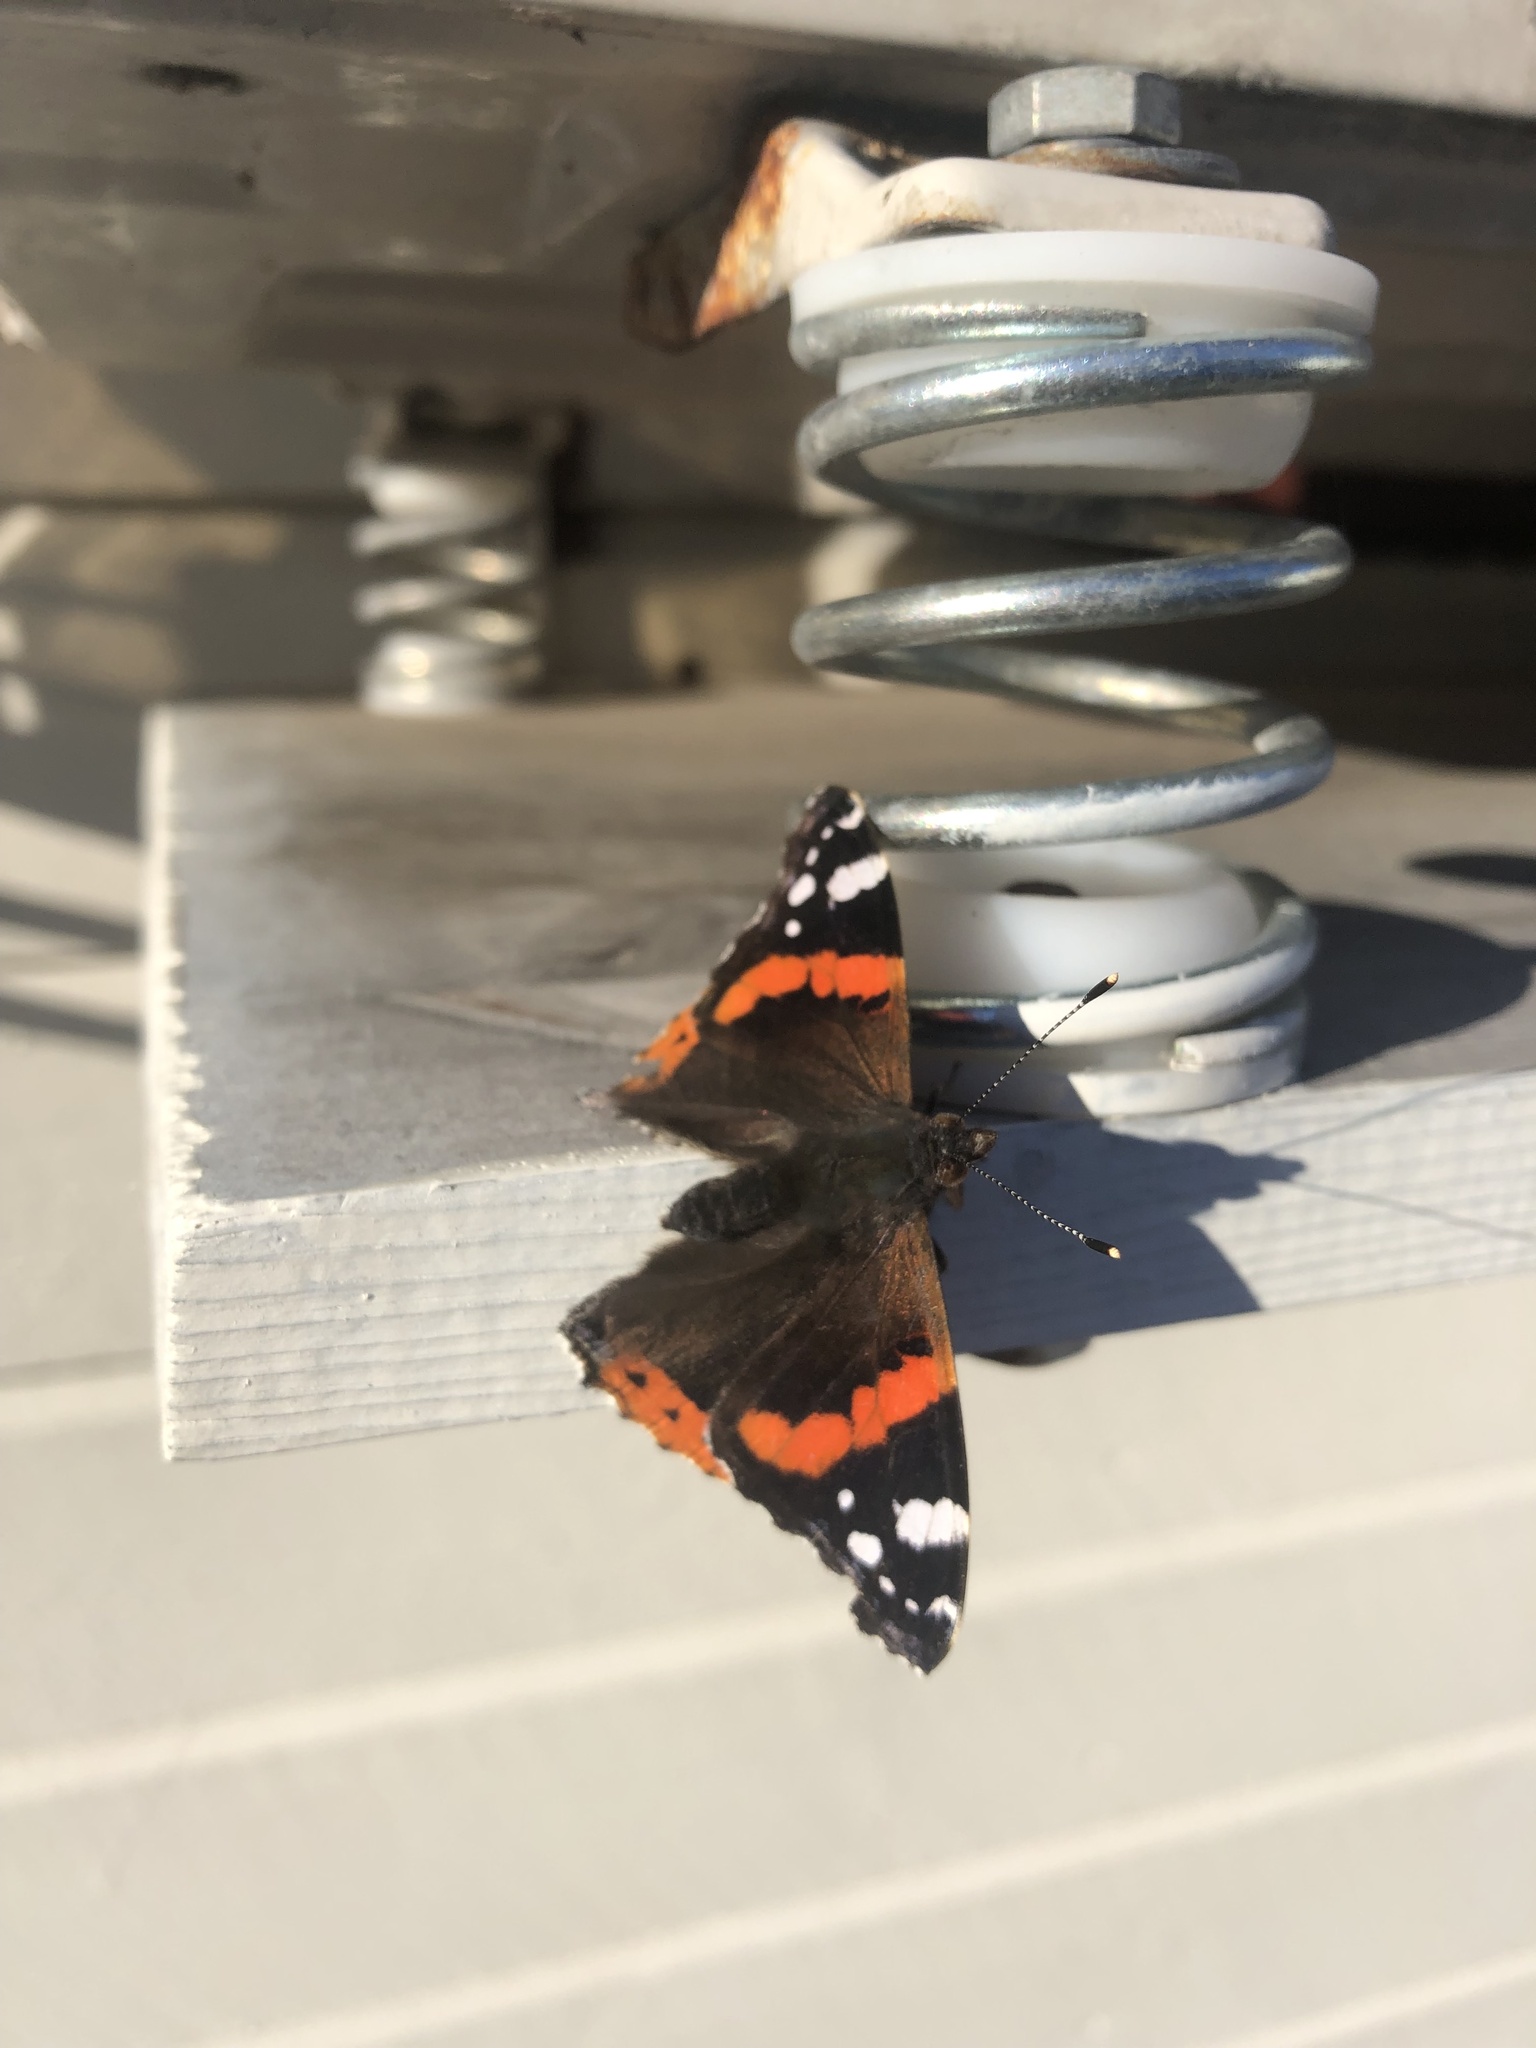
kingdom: Animalia
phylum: Arthropoda
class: Insecta
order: Lepidoptera
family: Nymphalidae
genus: Vanessa
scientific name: Vanessa atalanta
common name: Red admiral
